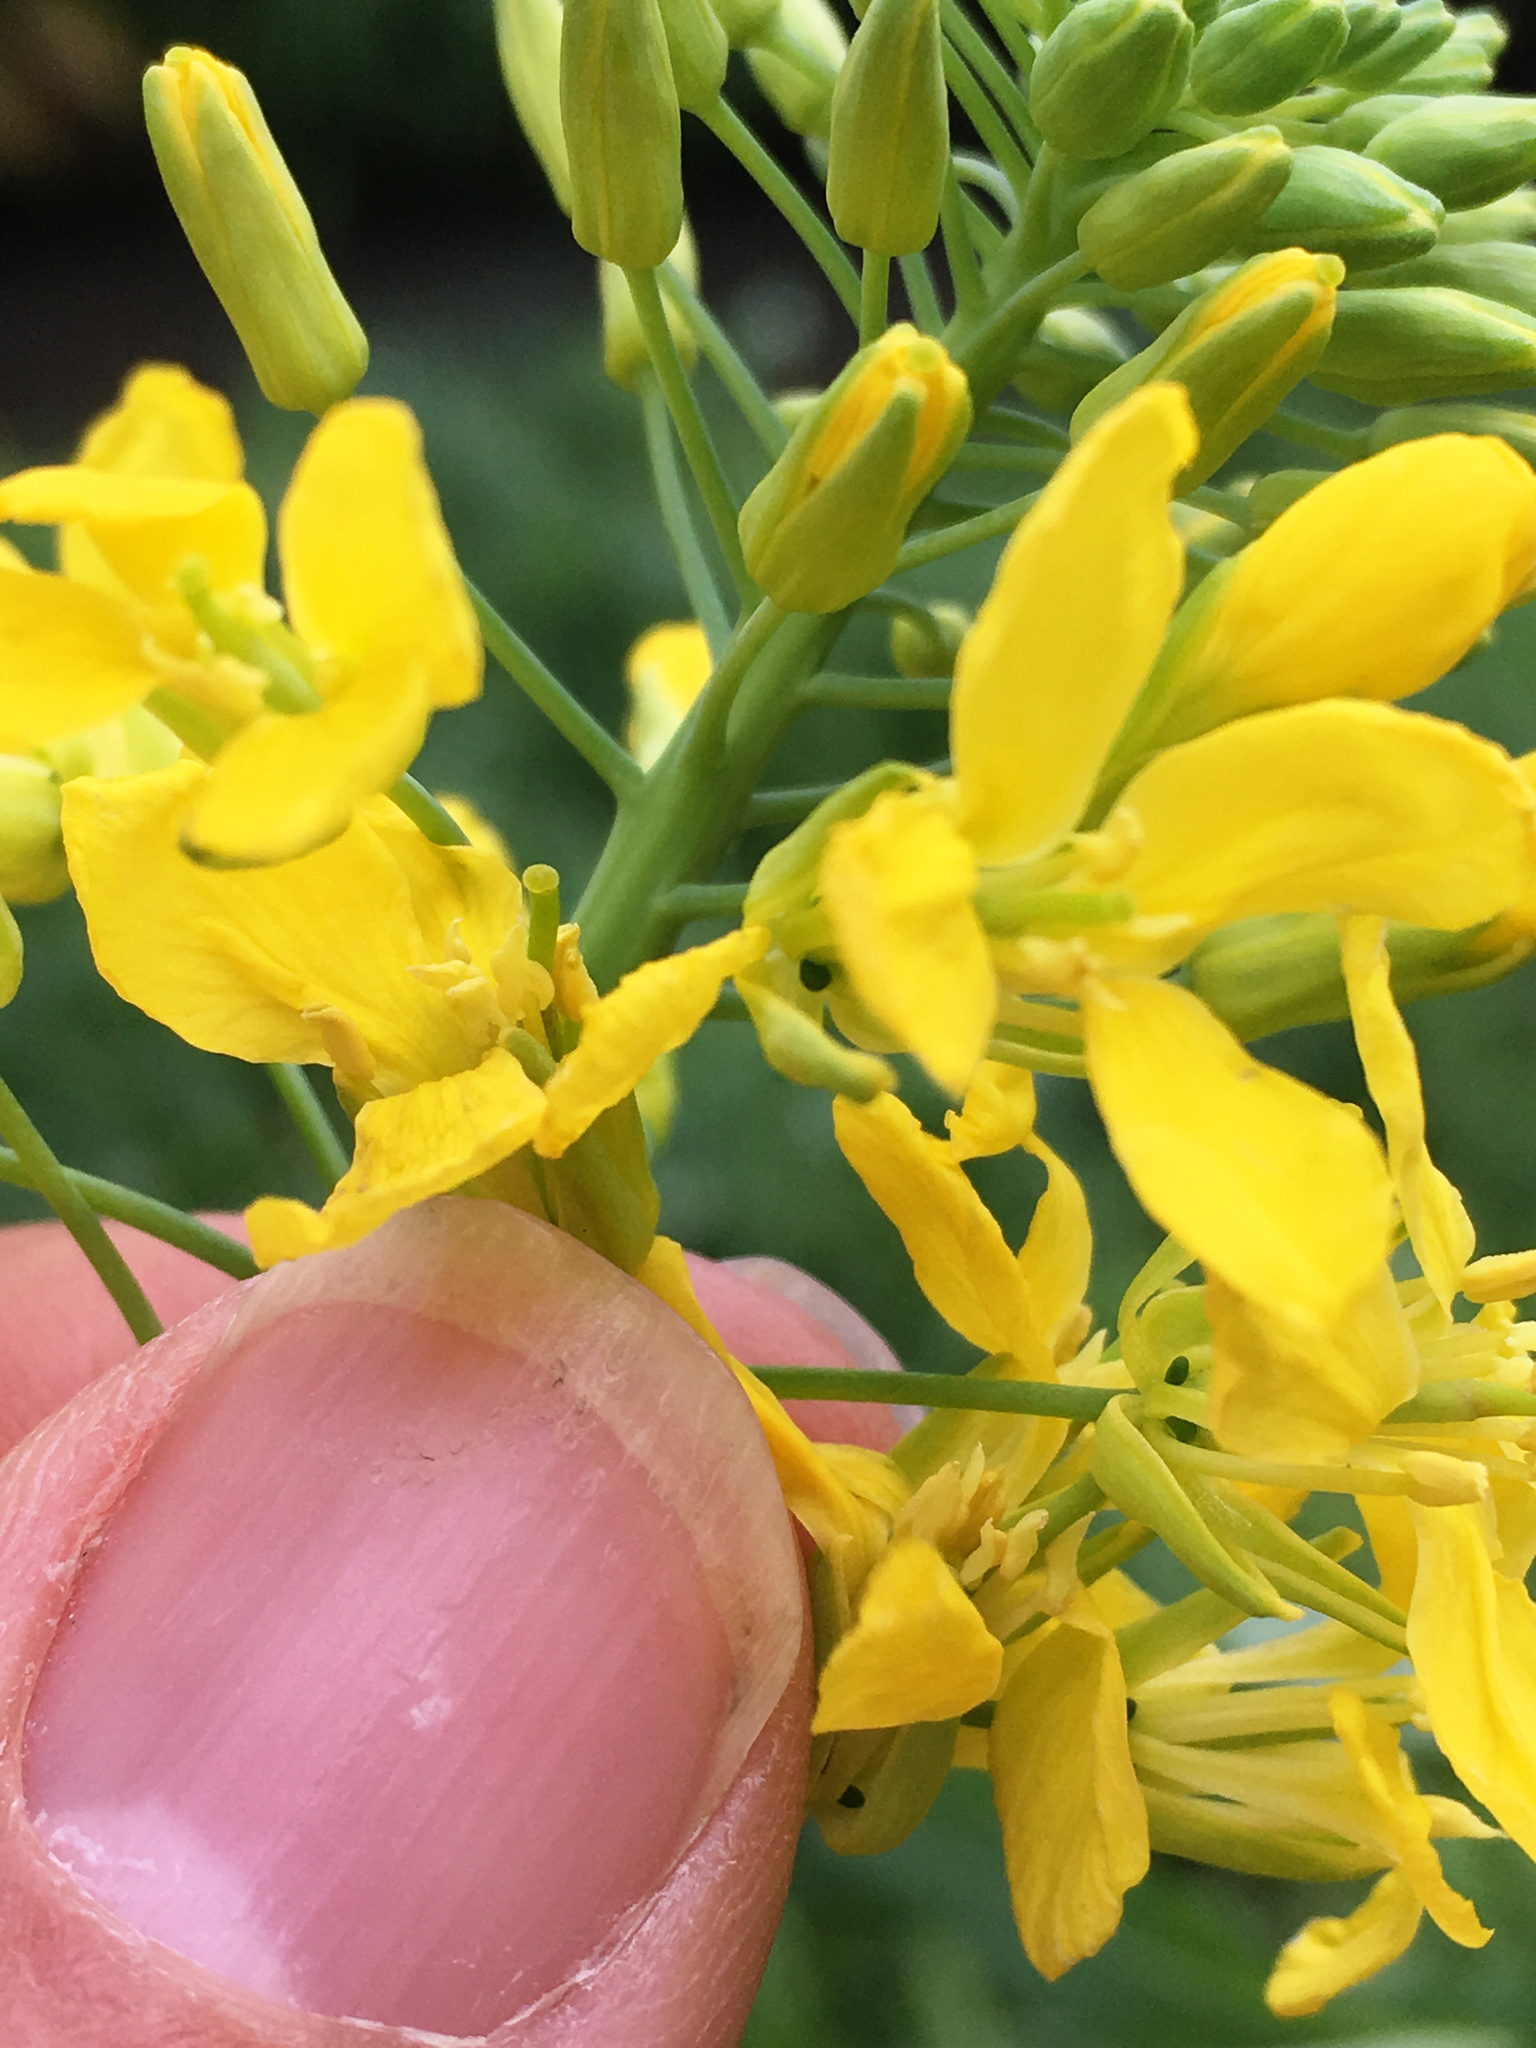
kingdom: Plantae
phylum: Tracheophyta
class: Magnoliopsida
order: Brassicales
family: Brassicaceae
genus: Brassica
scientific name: Brassica oleracea
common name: Cabbage
